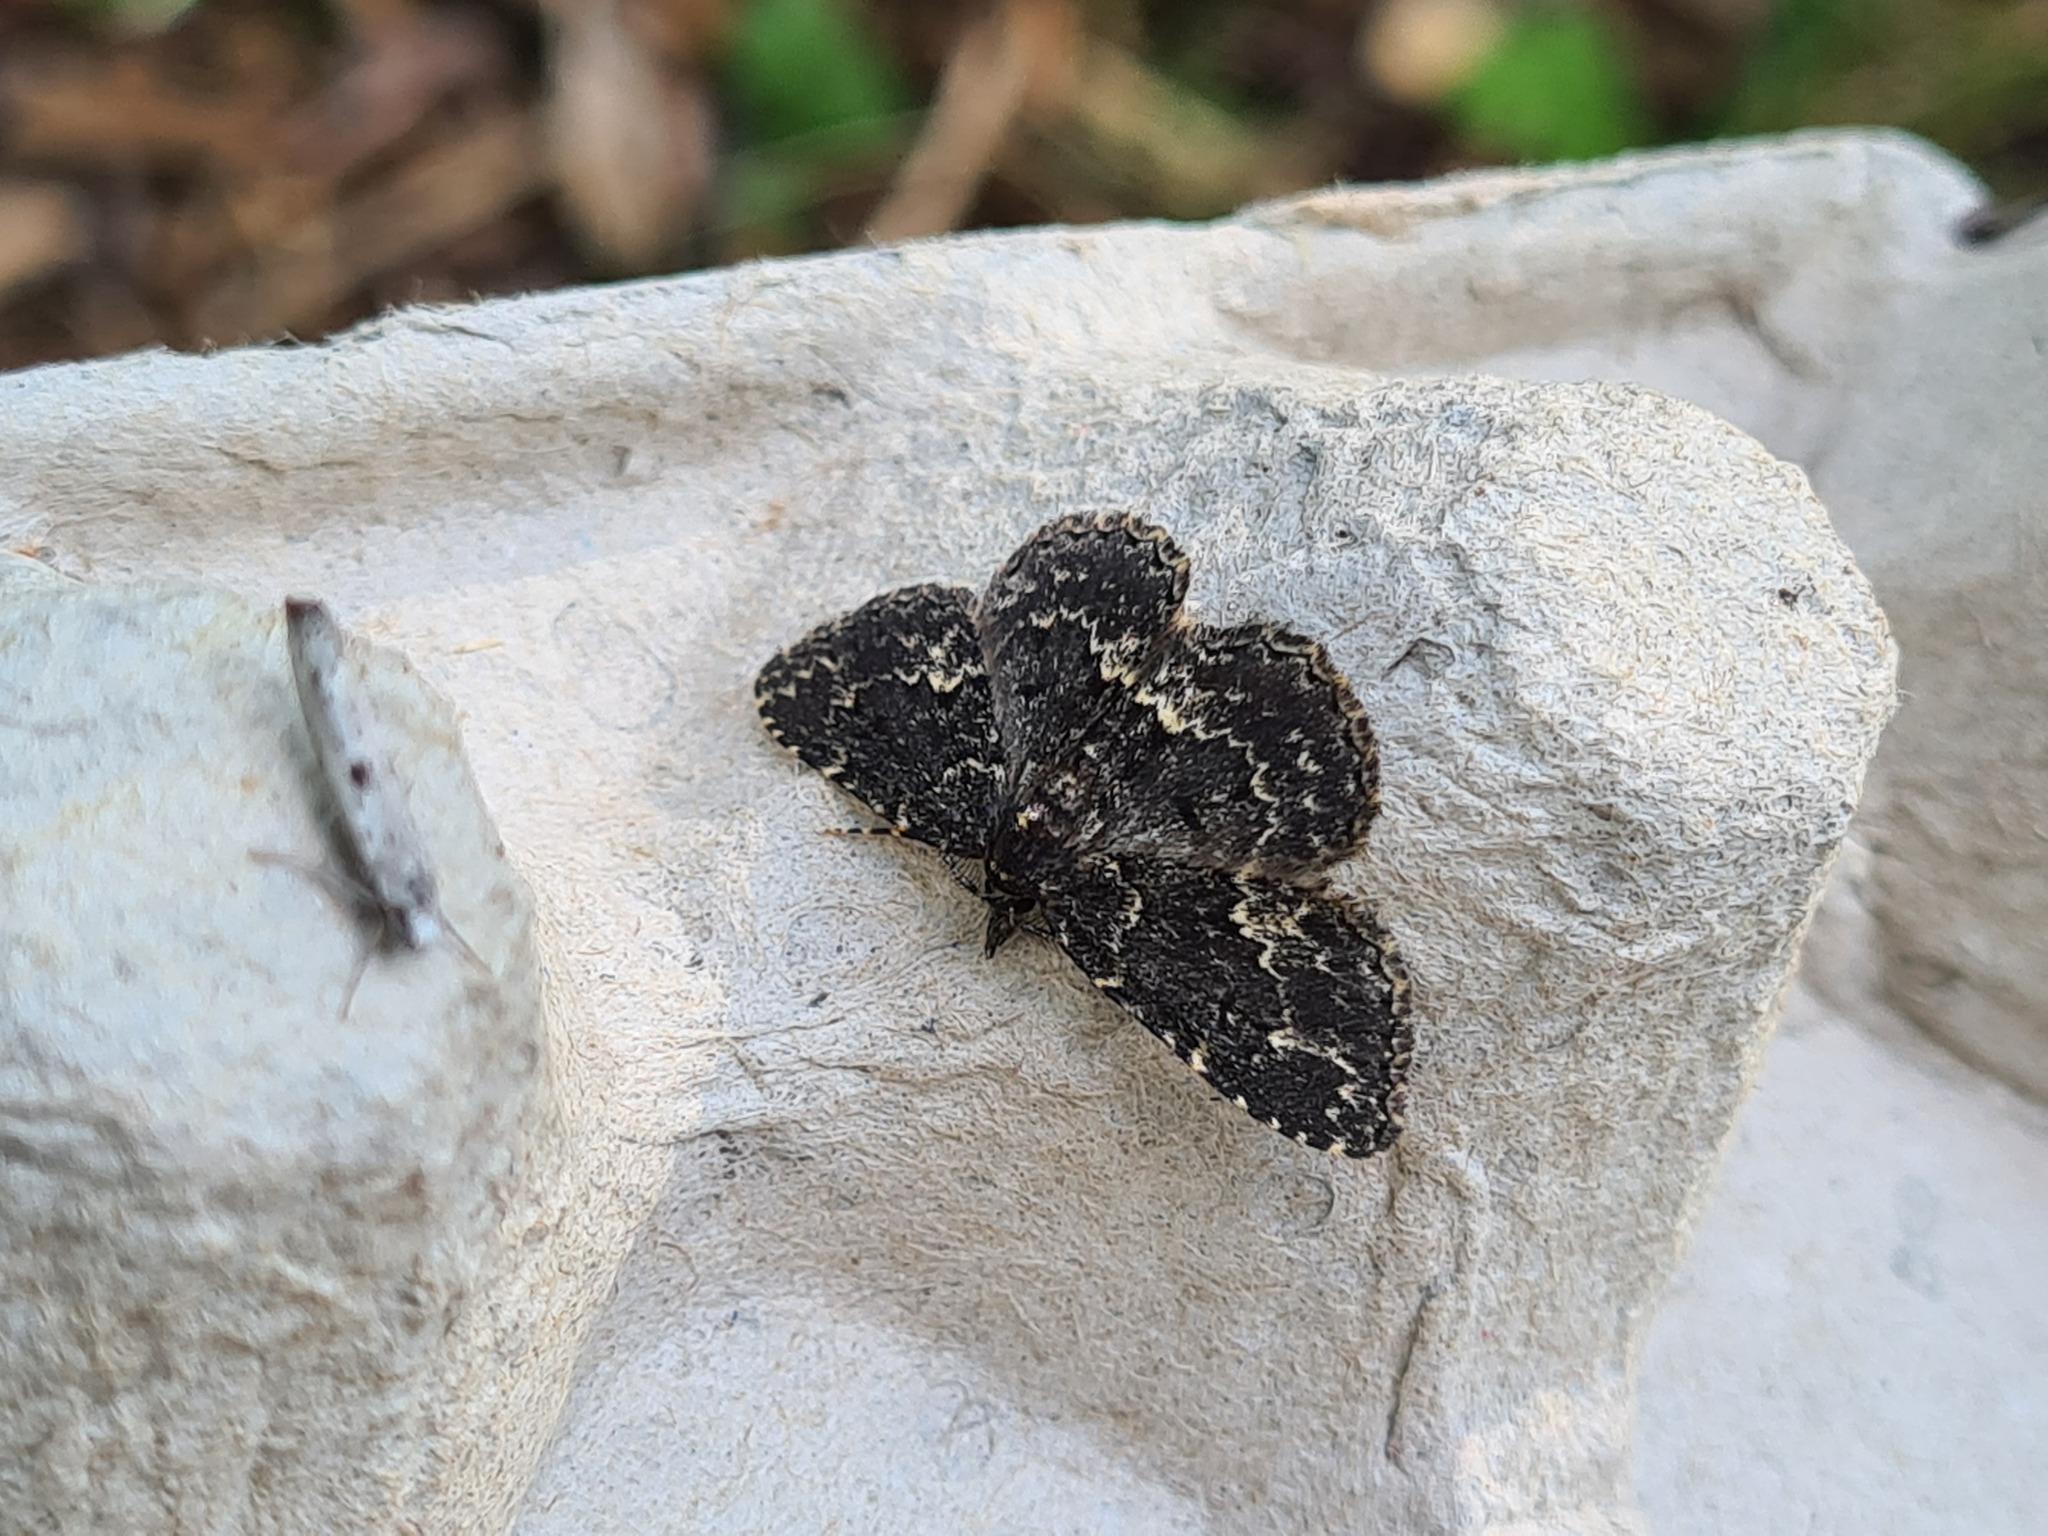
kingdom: Animalia
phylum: Arthropoda
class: Insecta
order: Lepidoptera
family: Erebidae
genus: Parascotia
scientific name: Parascotia fuliginaria
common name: Waved black
